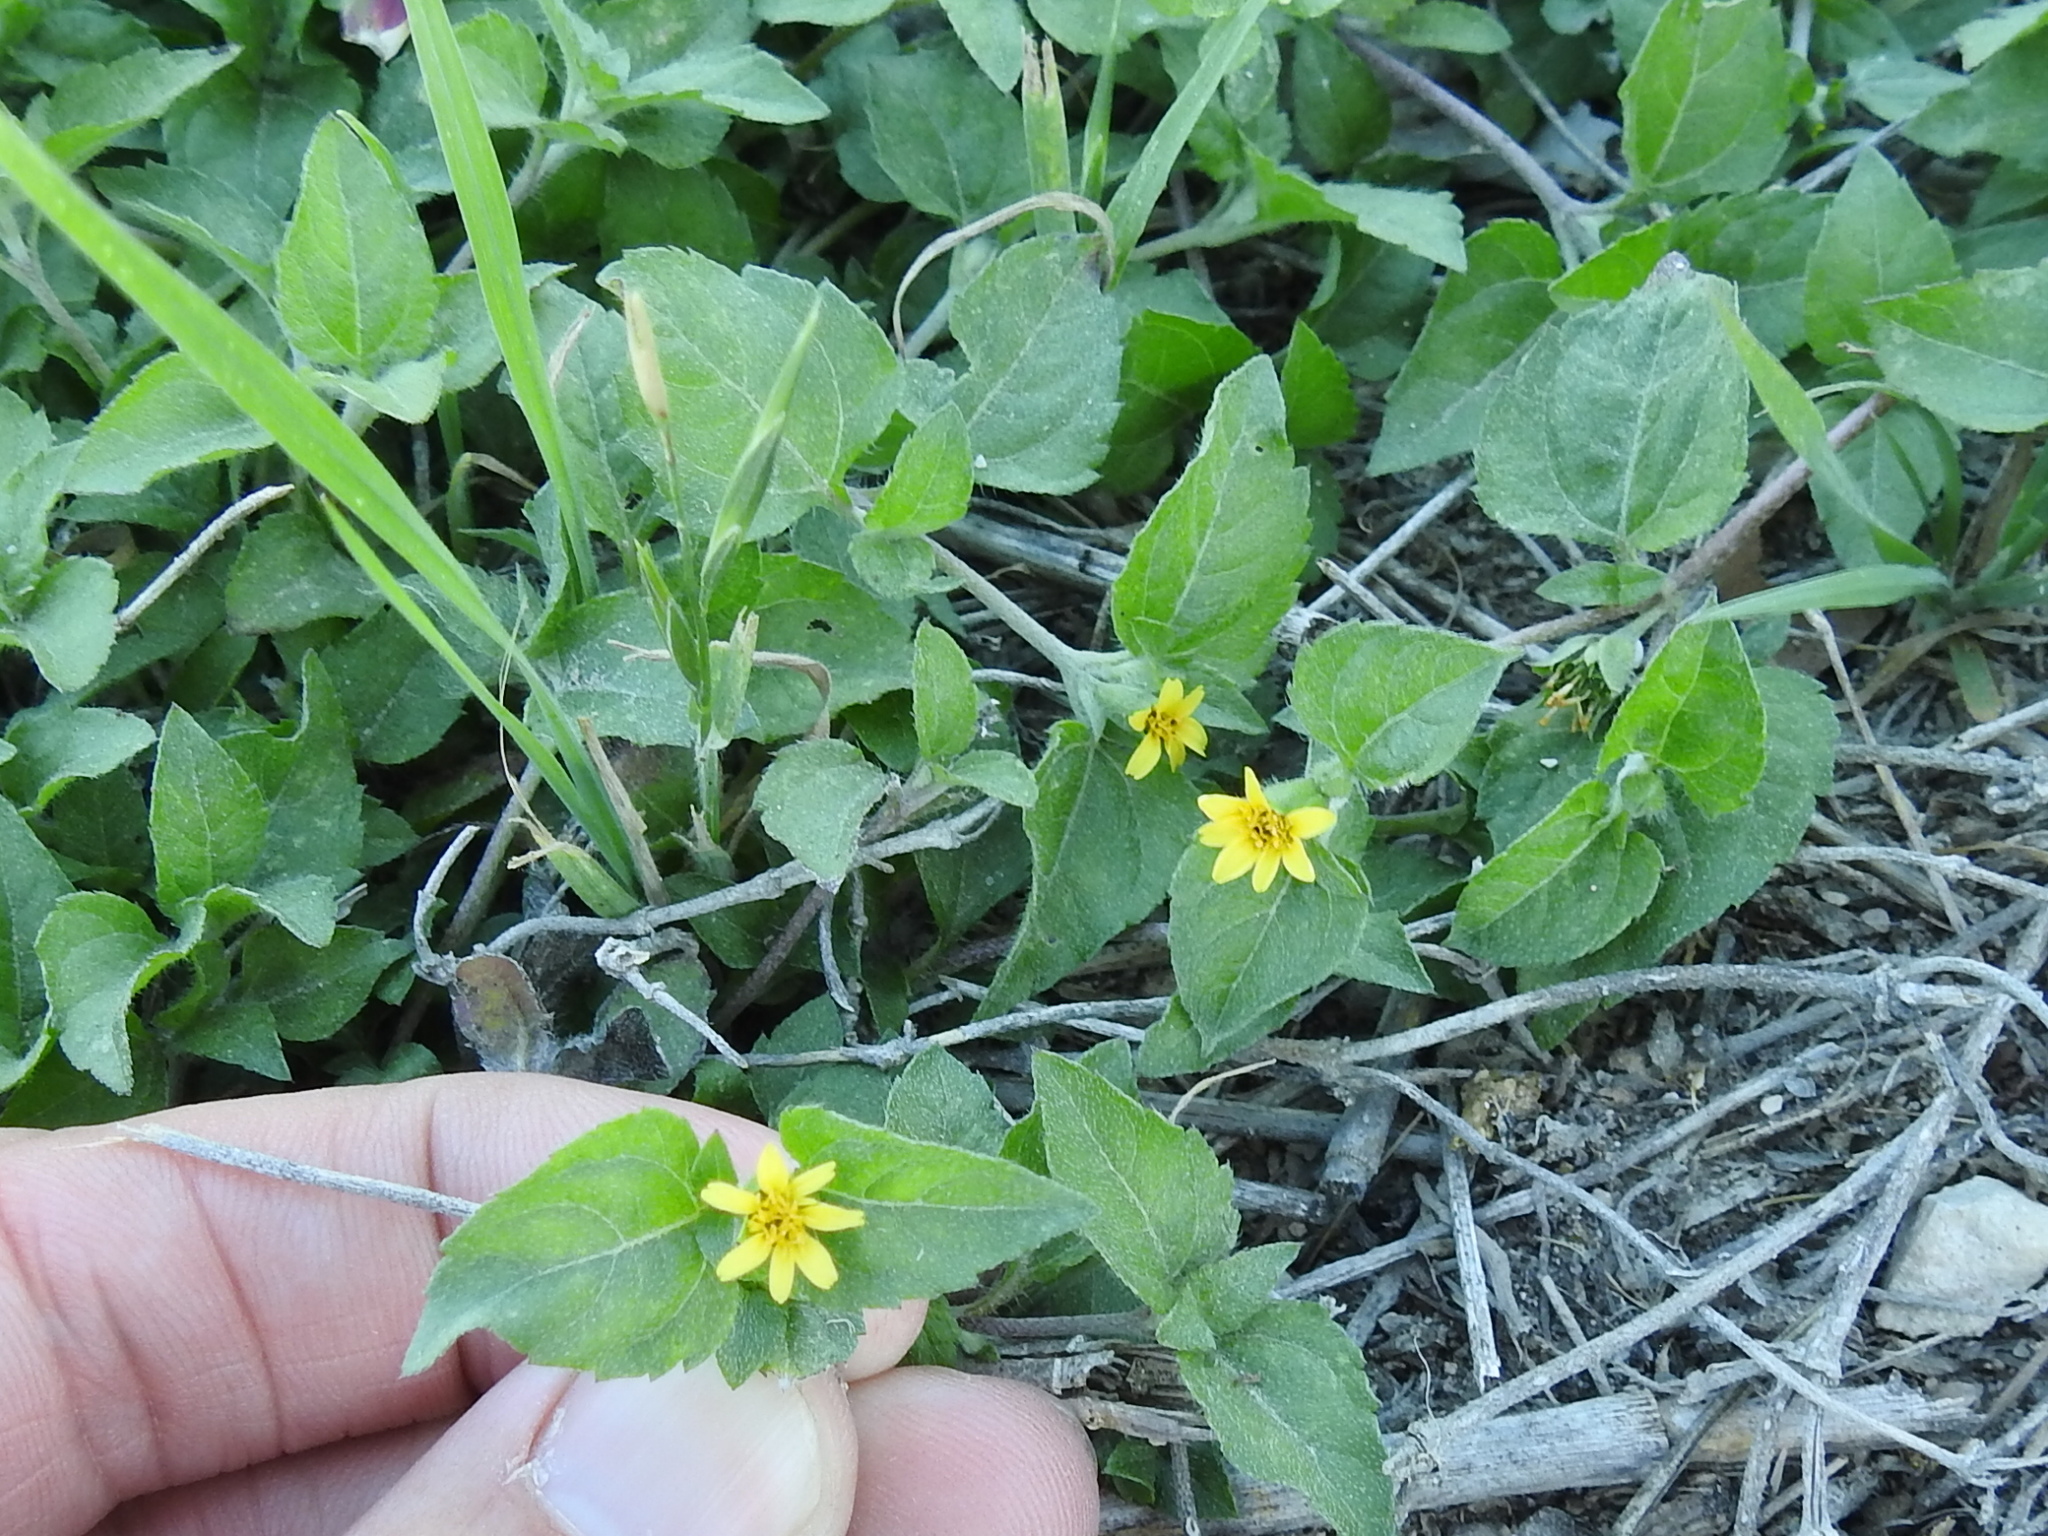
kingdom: Plantae
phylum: Tracheophyta
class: Magnoliopsida
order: Asterales
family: Asteraceae
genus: Calyptocarpus
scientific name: Calyptocarpus vialis
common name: Straggler daisy
